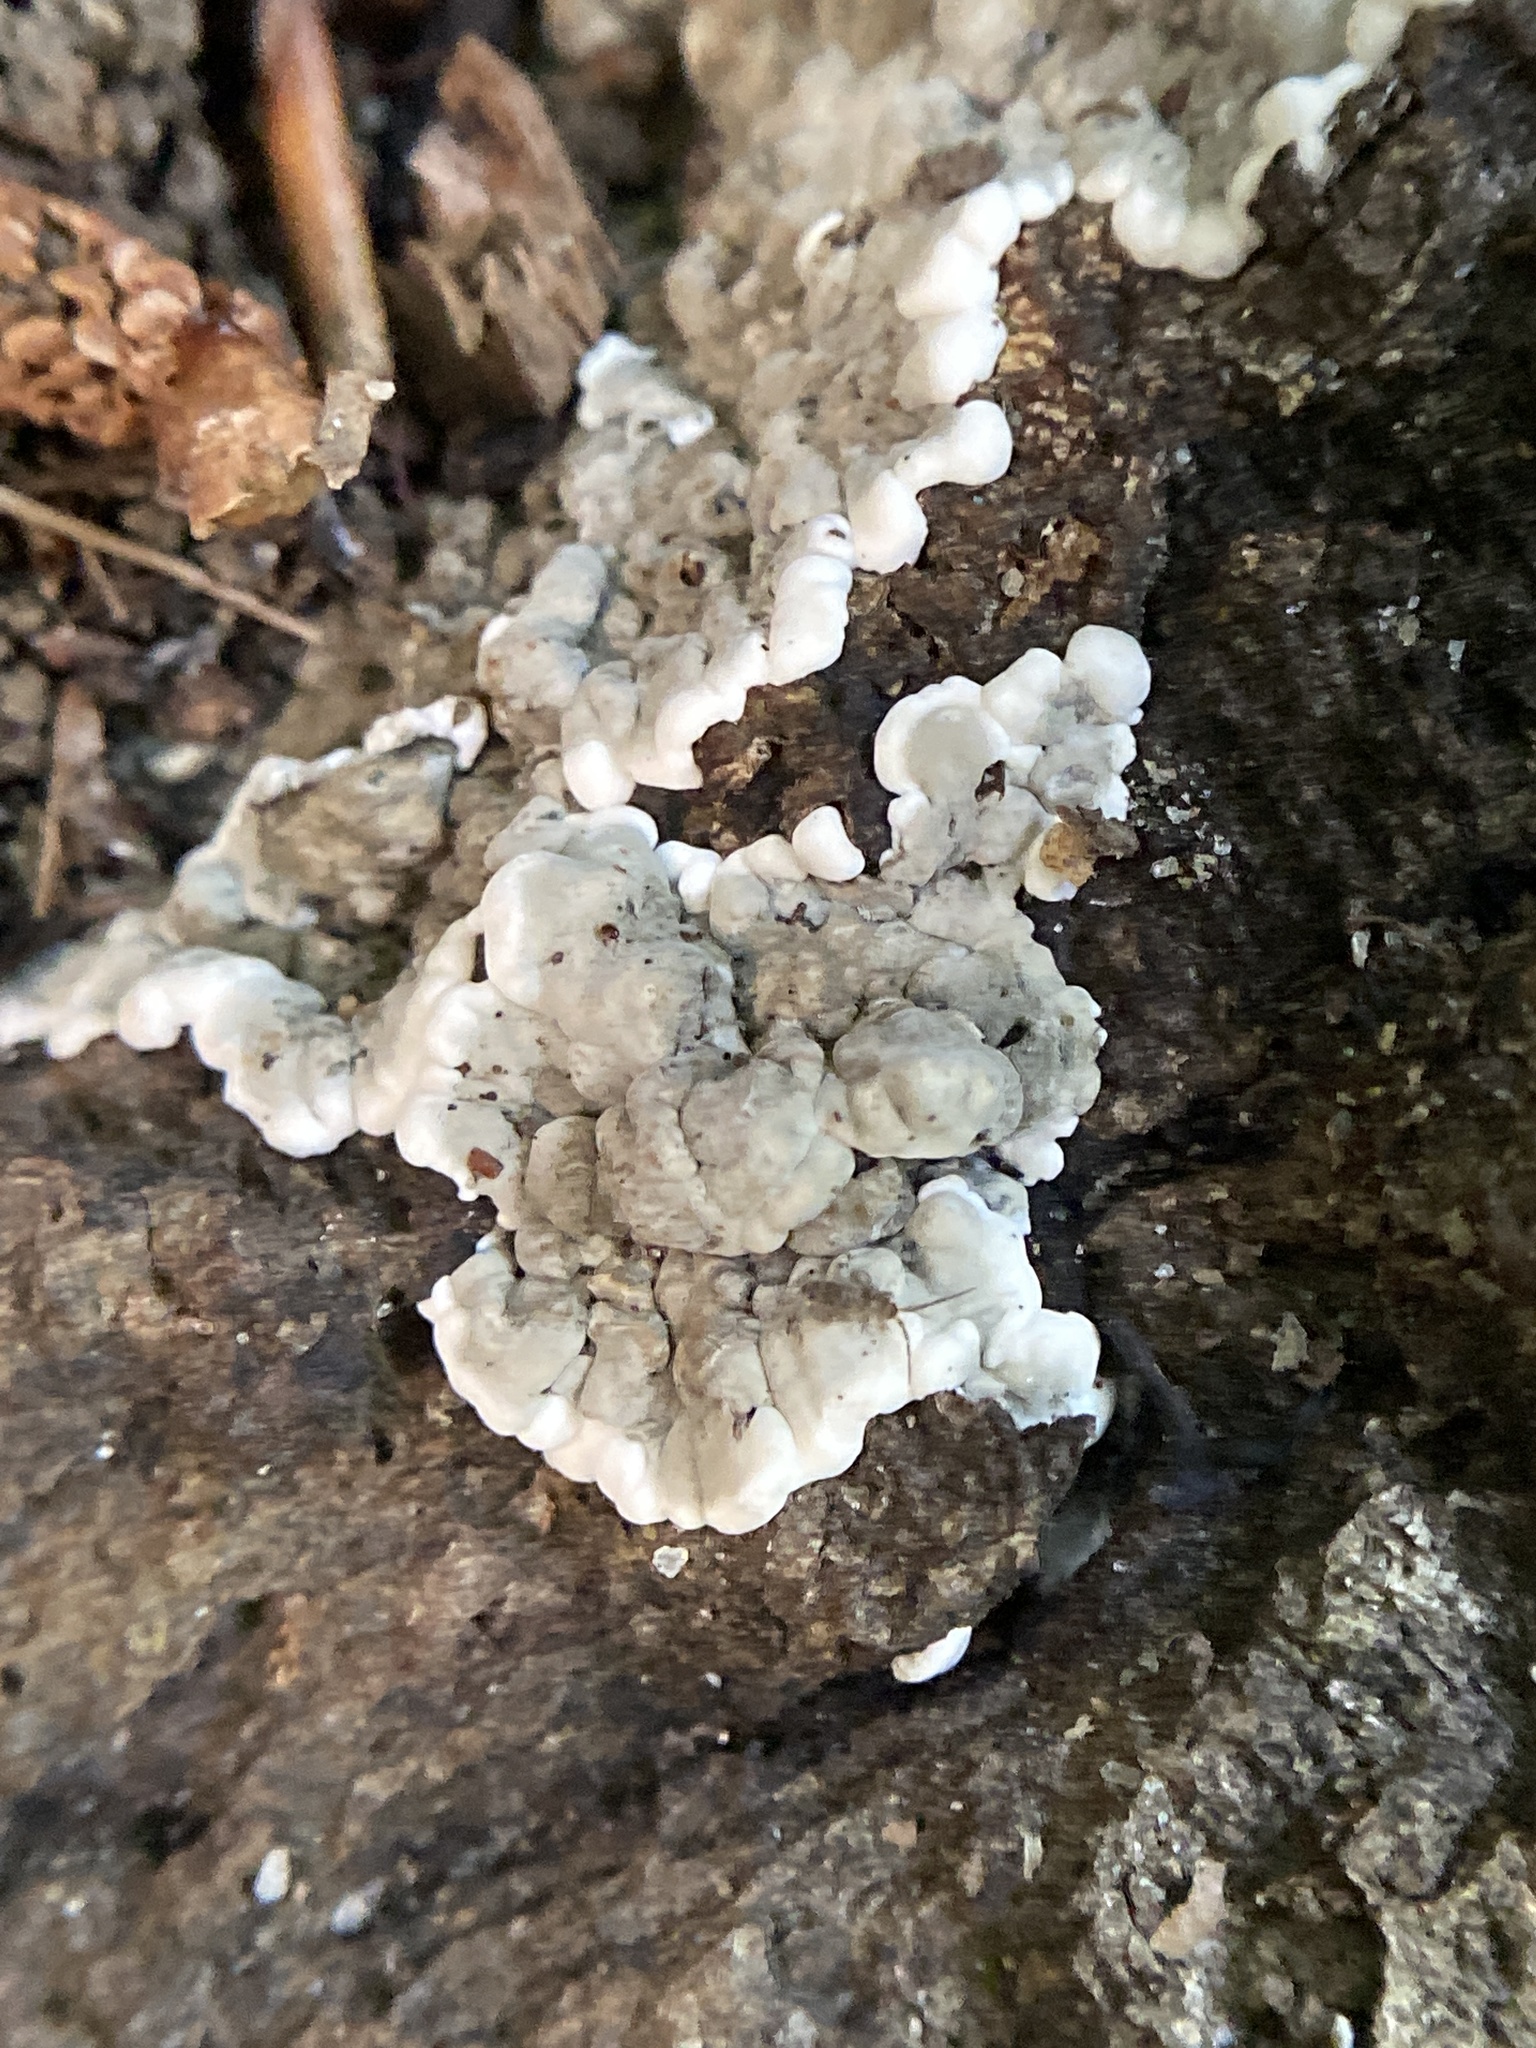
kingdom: Fungi
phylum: Ascomycota
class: Sordariomycetes
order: Xylariales
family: Xylariaceae
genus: Kretzschmaria
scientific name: Kretzschmaria deusta
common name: Brittle cinder
